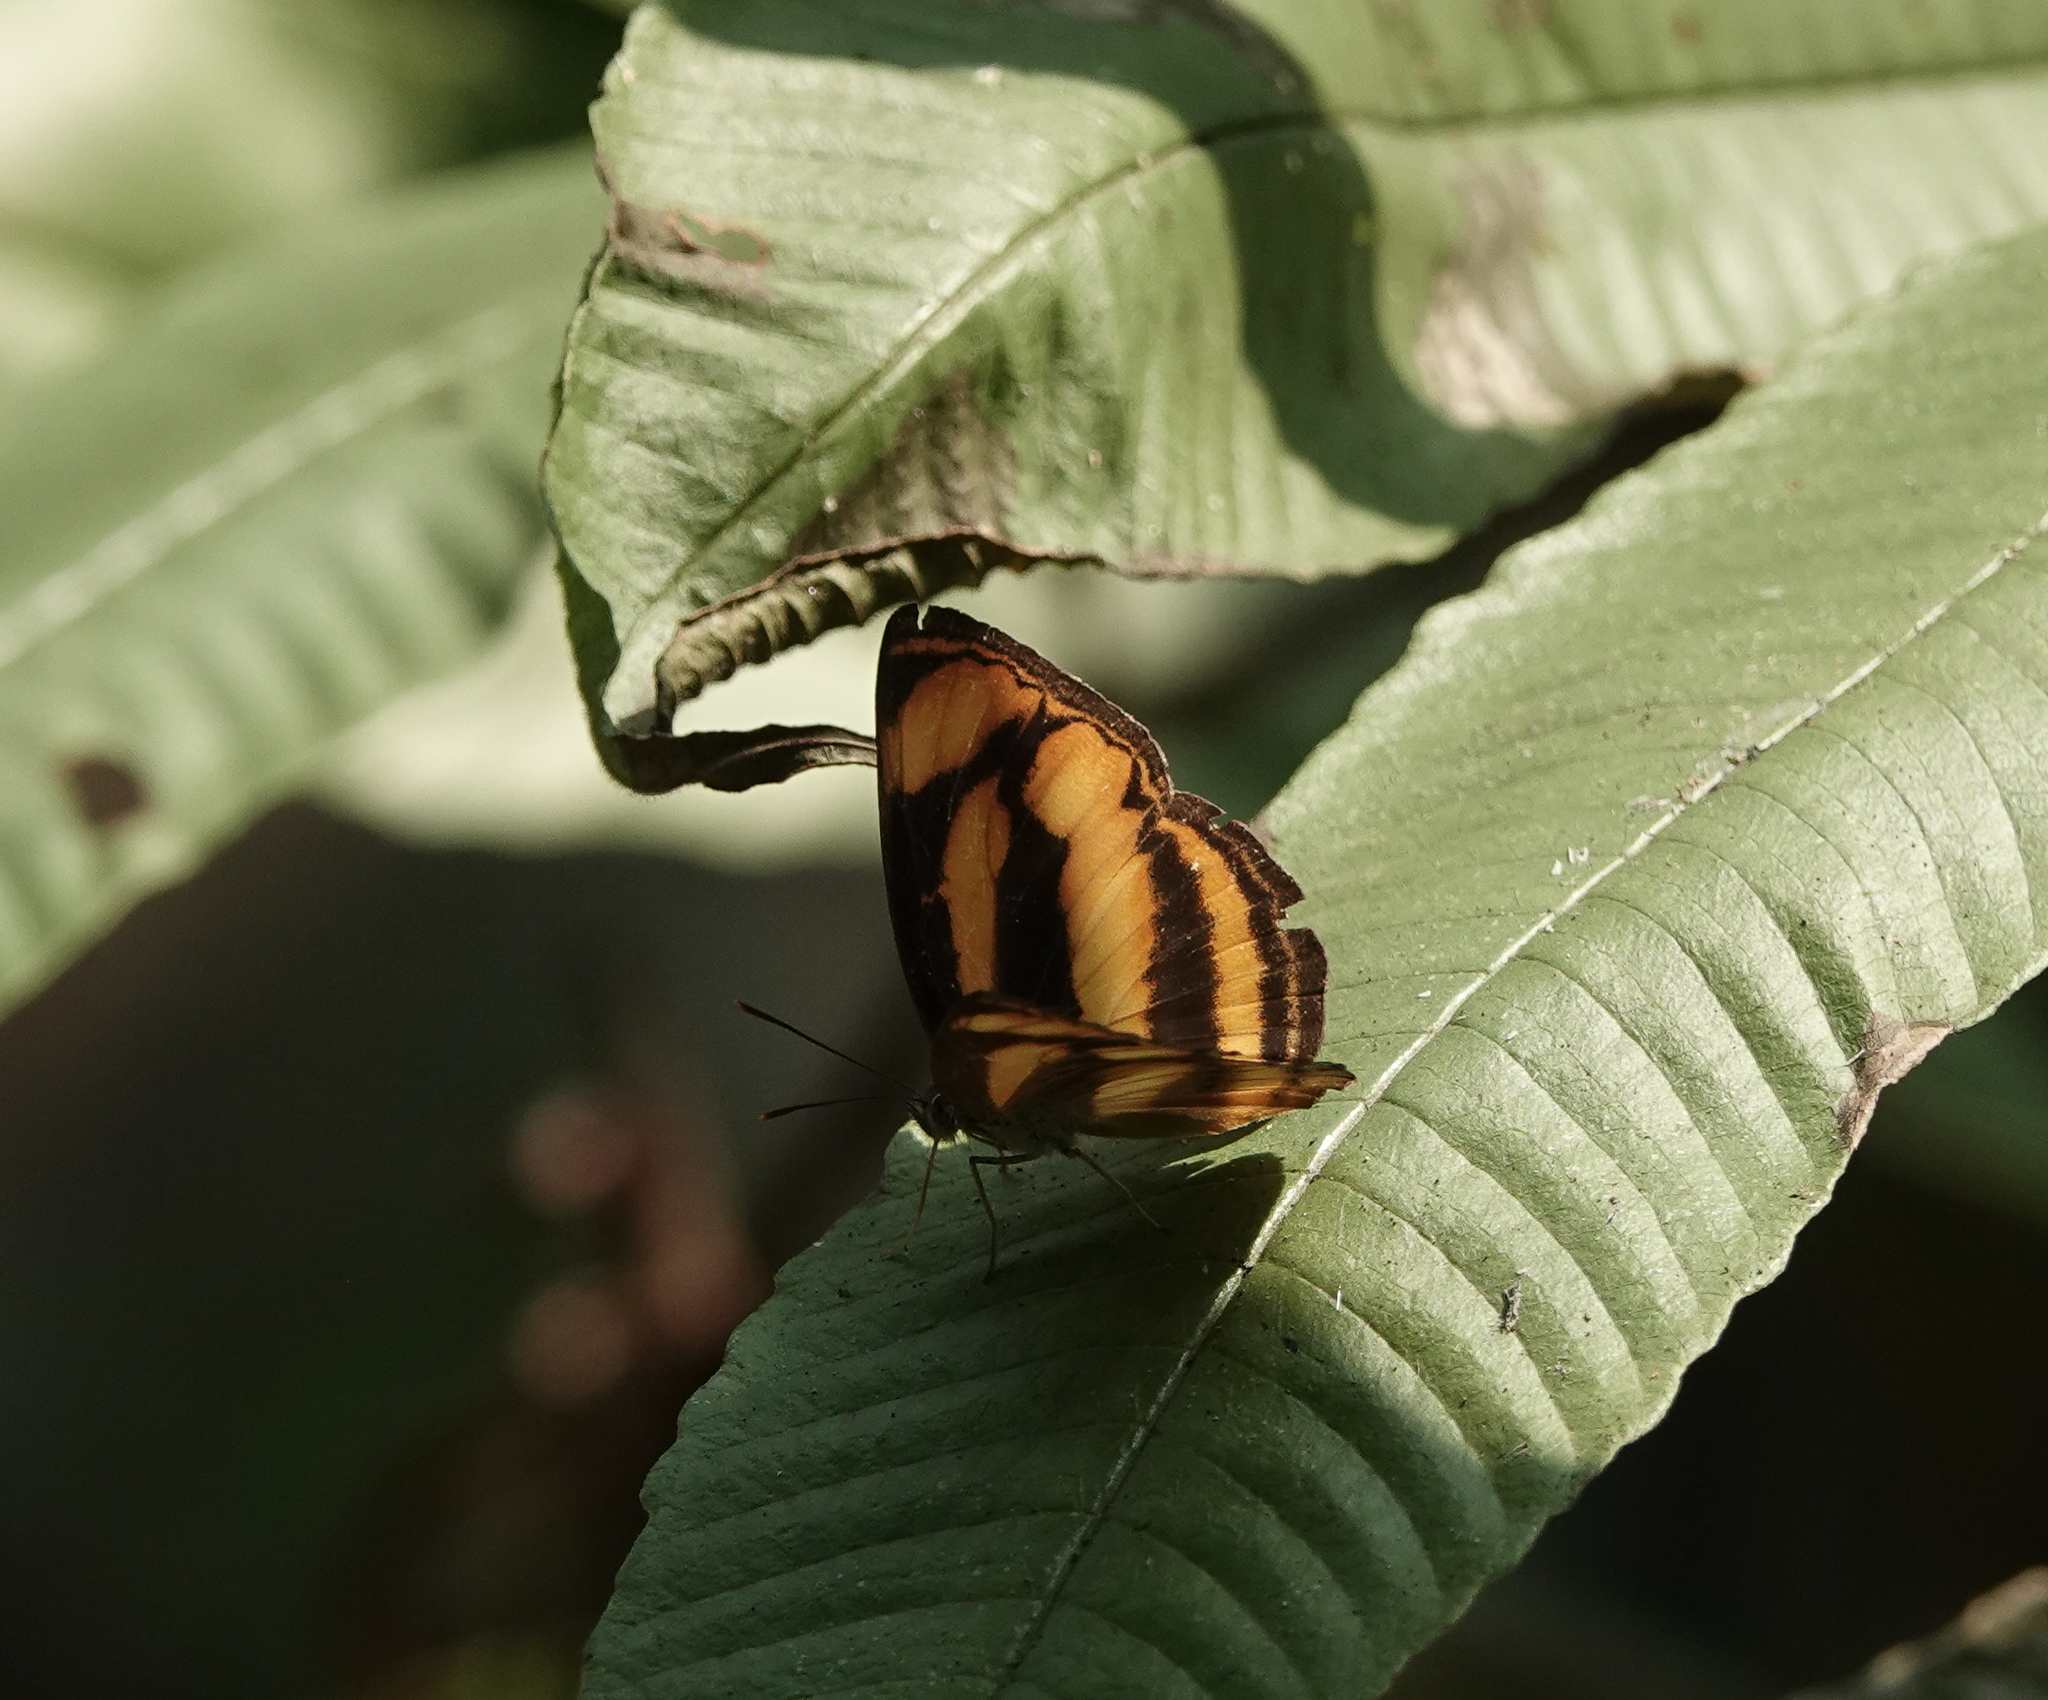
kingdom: Animalia
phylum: Arthropoda
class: Insecta
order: Lepidoptera
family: Nymphalidae
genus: Lasippa
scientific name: Lasippa
